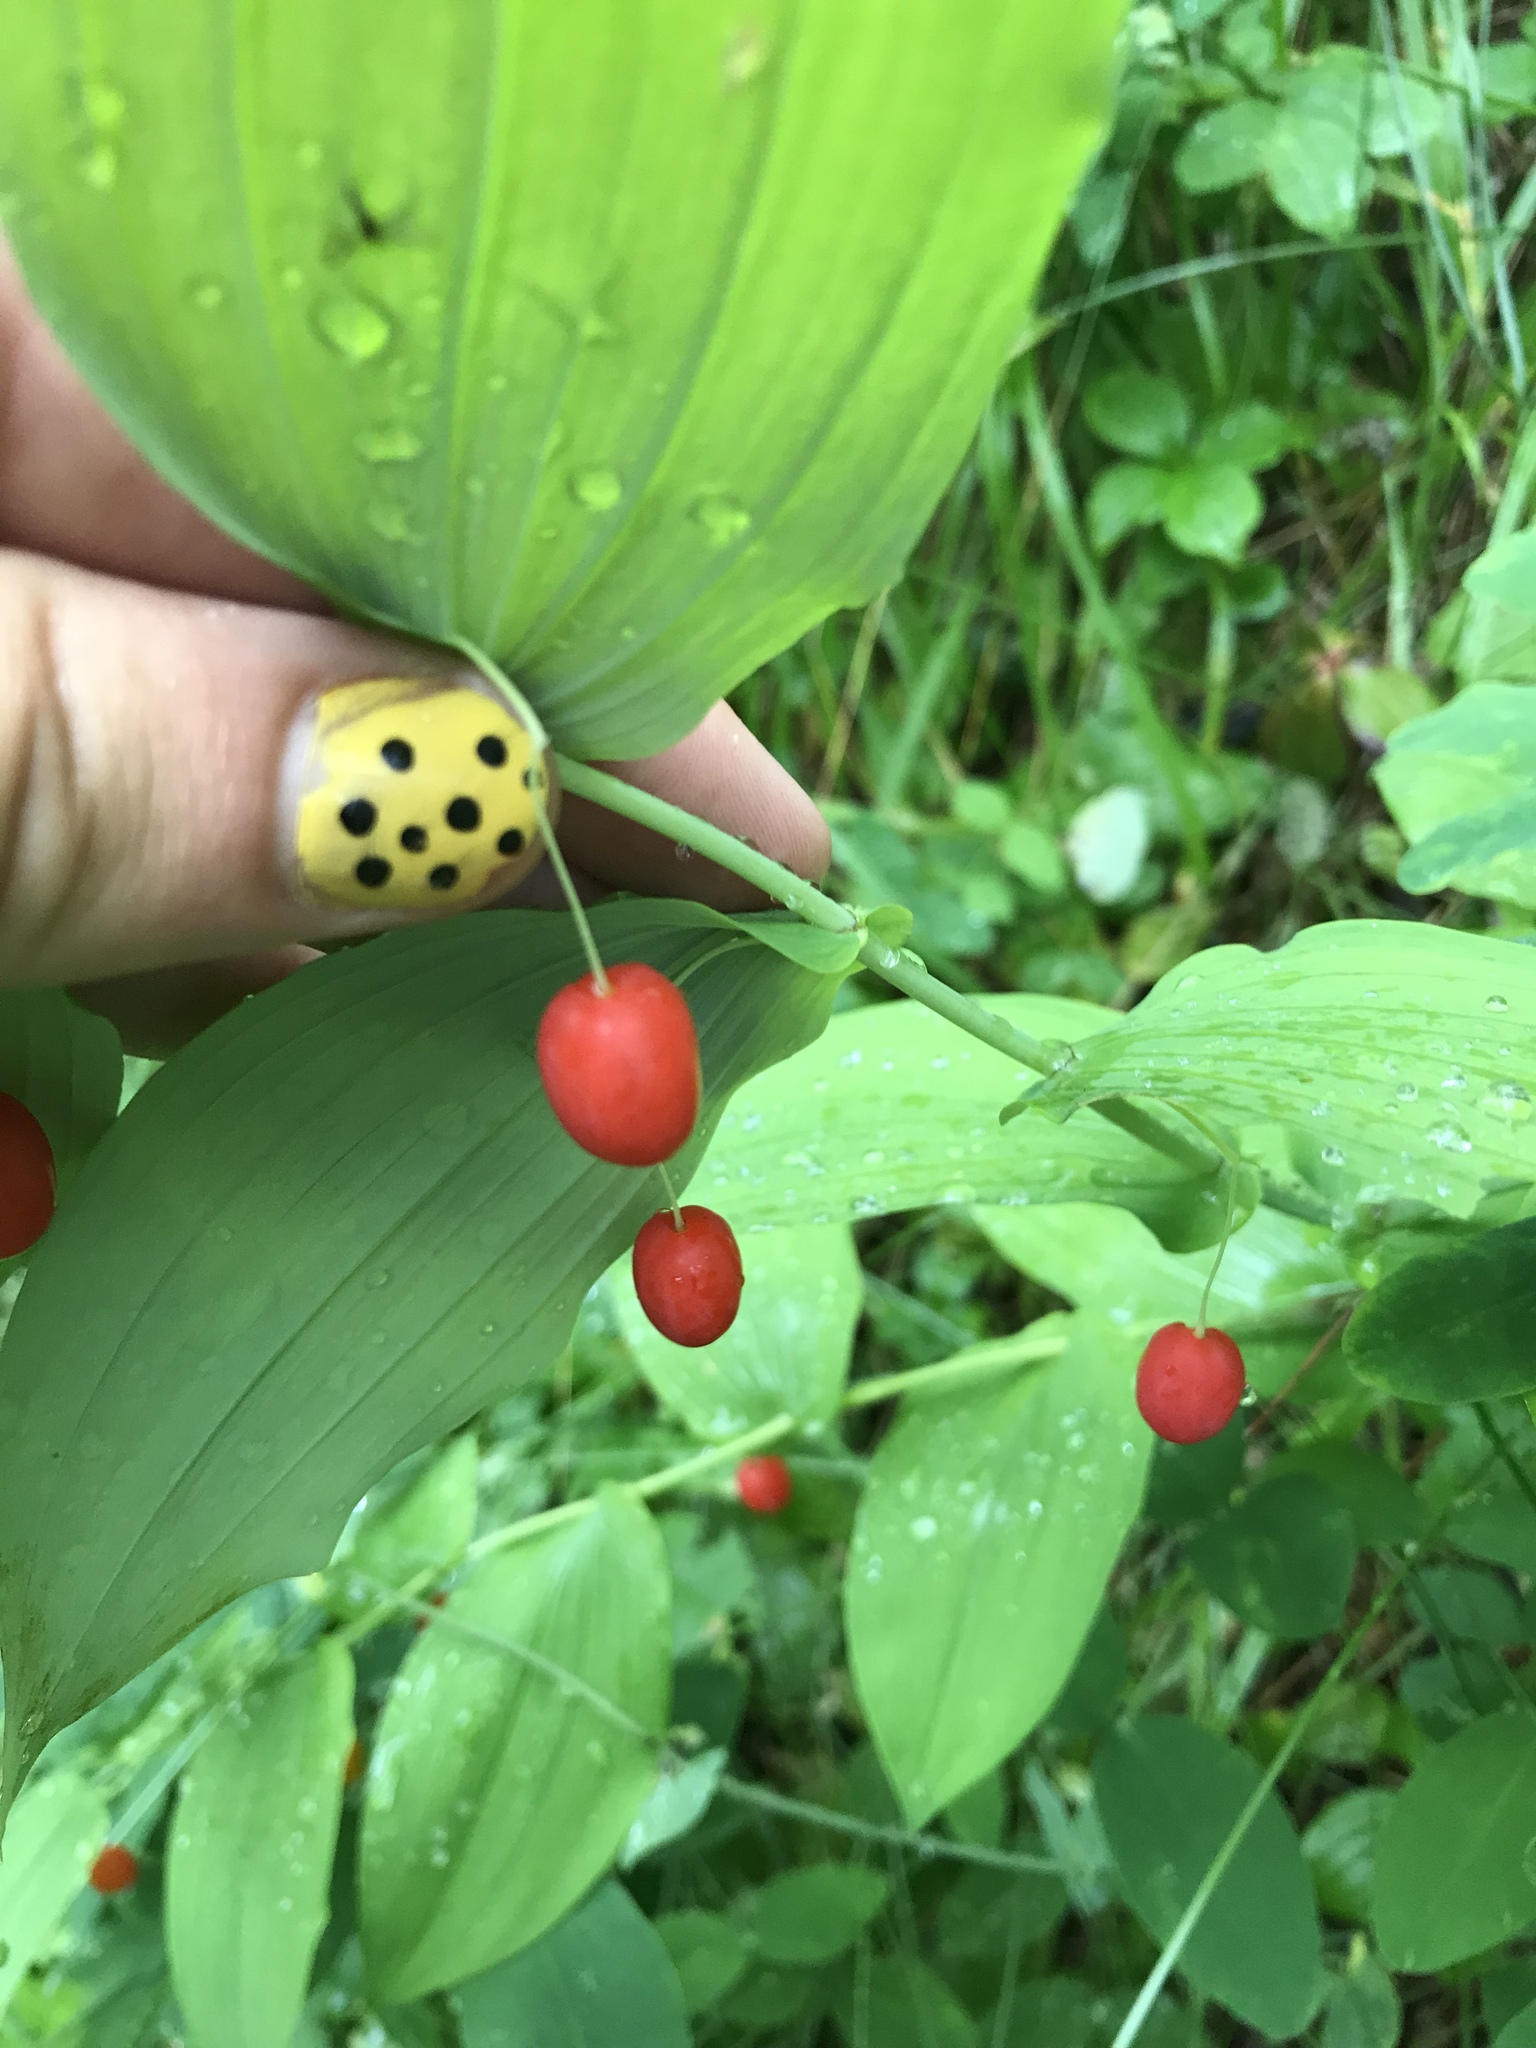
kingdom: Plantae
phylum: Tracheophyta
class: Liliopsida
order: Liliales
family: Liliaceae
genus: Streptopus
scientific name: Streptopus amplexifolius
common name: Clasp twisted stalk
